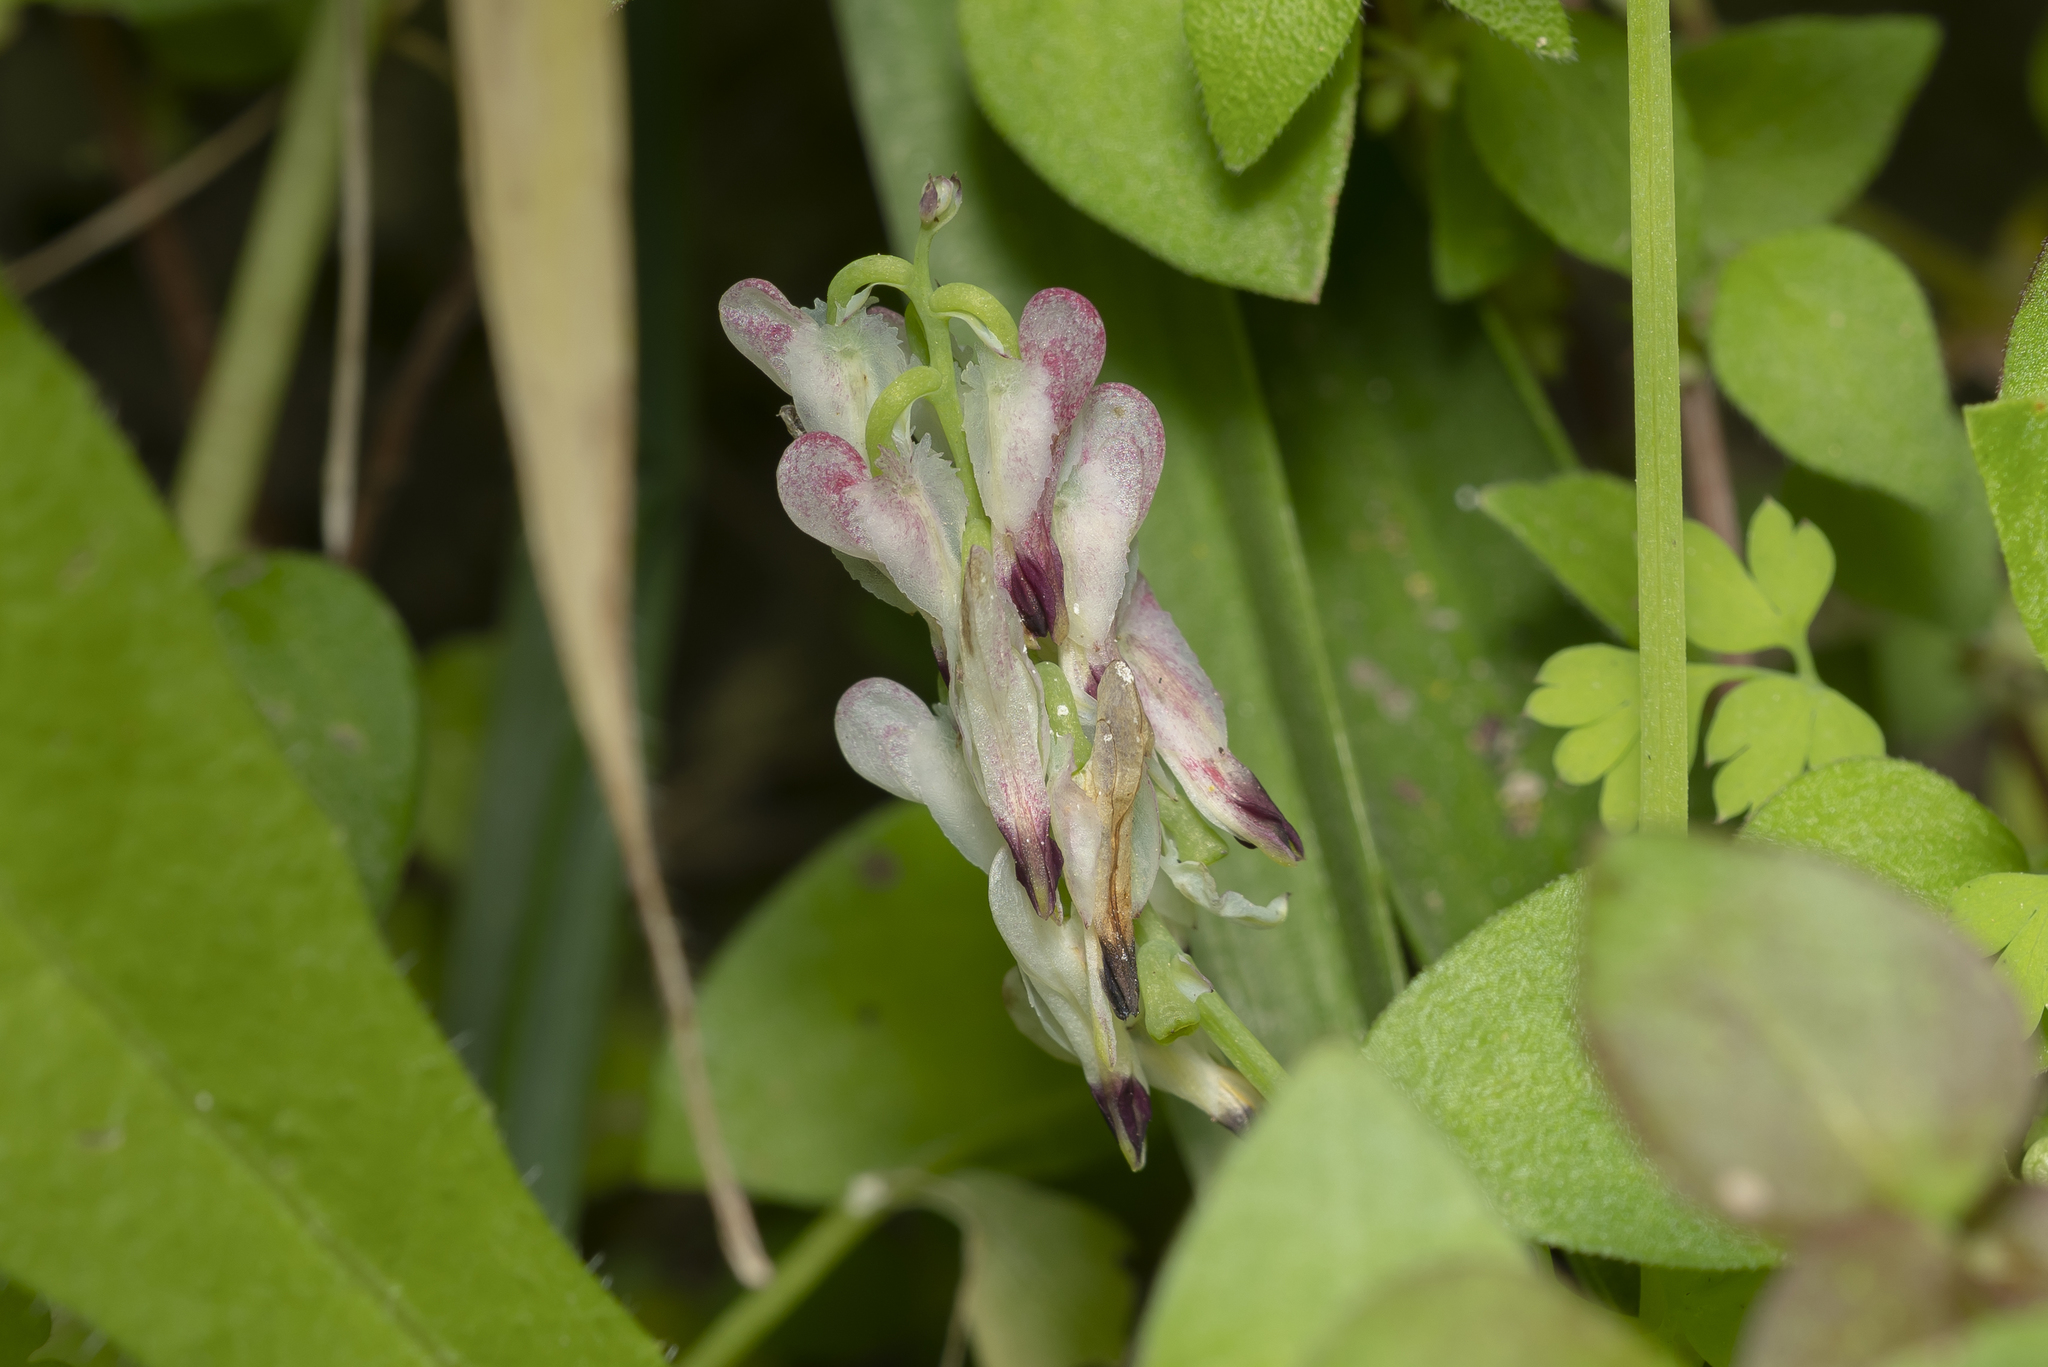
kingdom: Plantae
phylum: Tracheophyta
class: Magnoliopsida
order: Ranunculales
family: Papaveraceae
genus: Fumaria
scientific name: Fumaria capreolata
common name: White ramping-fumitory
